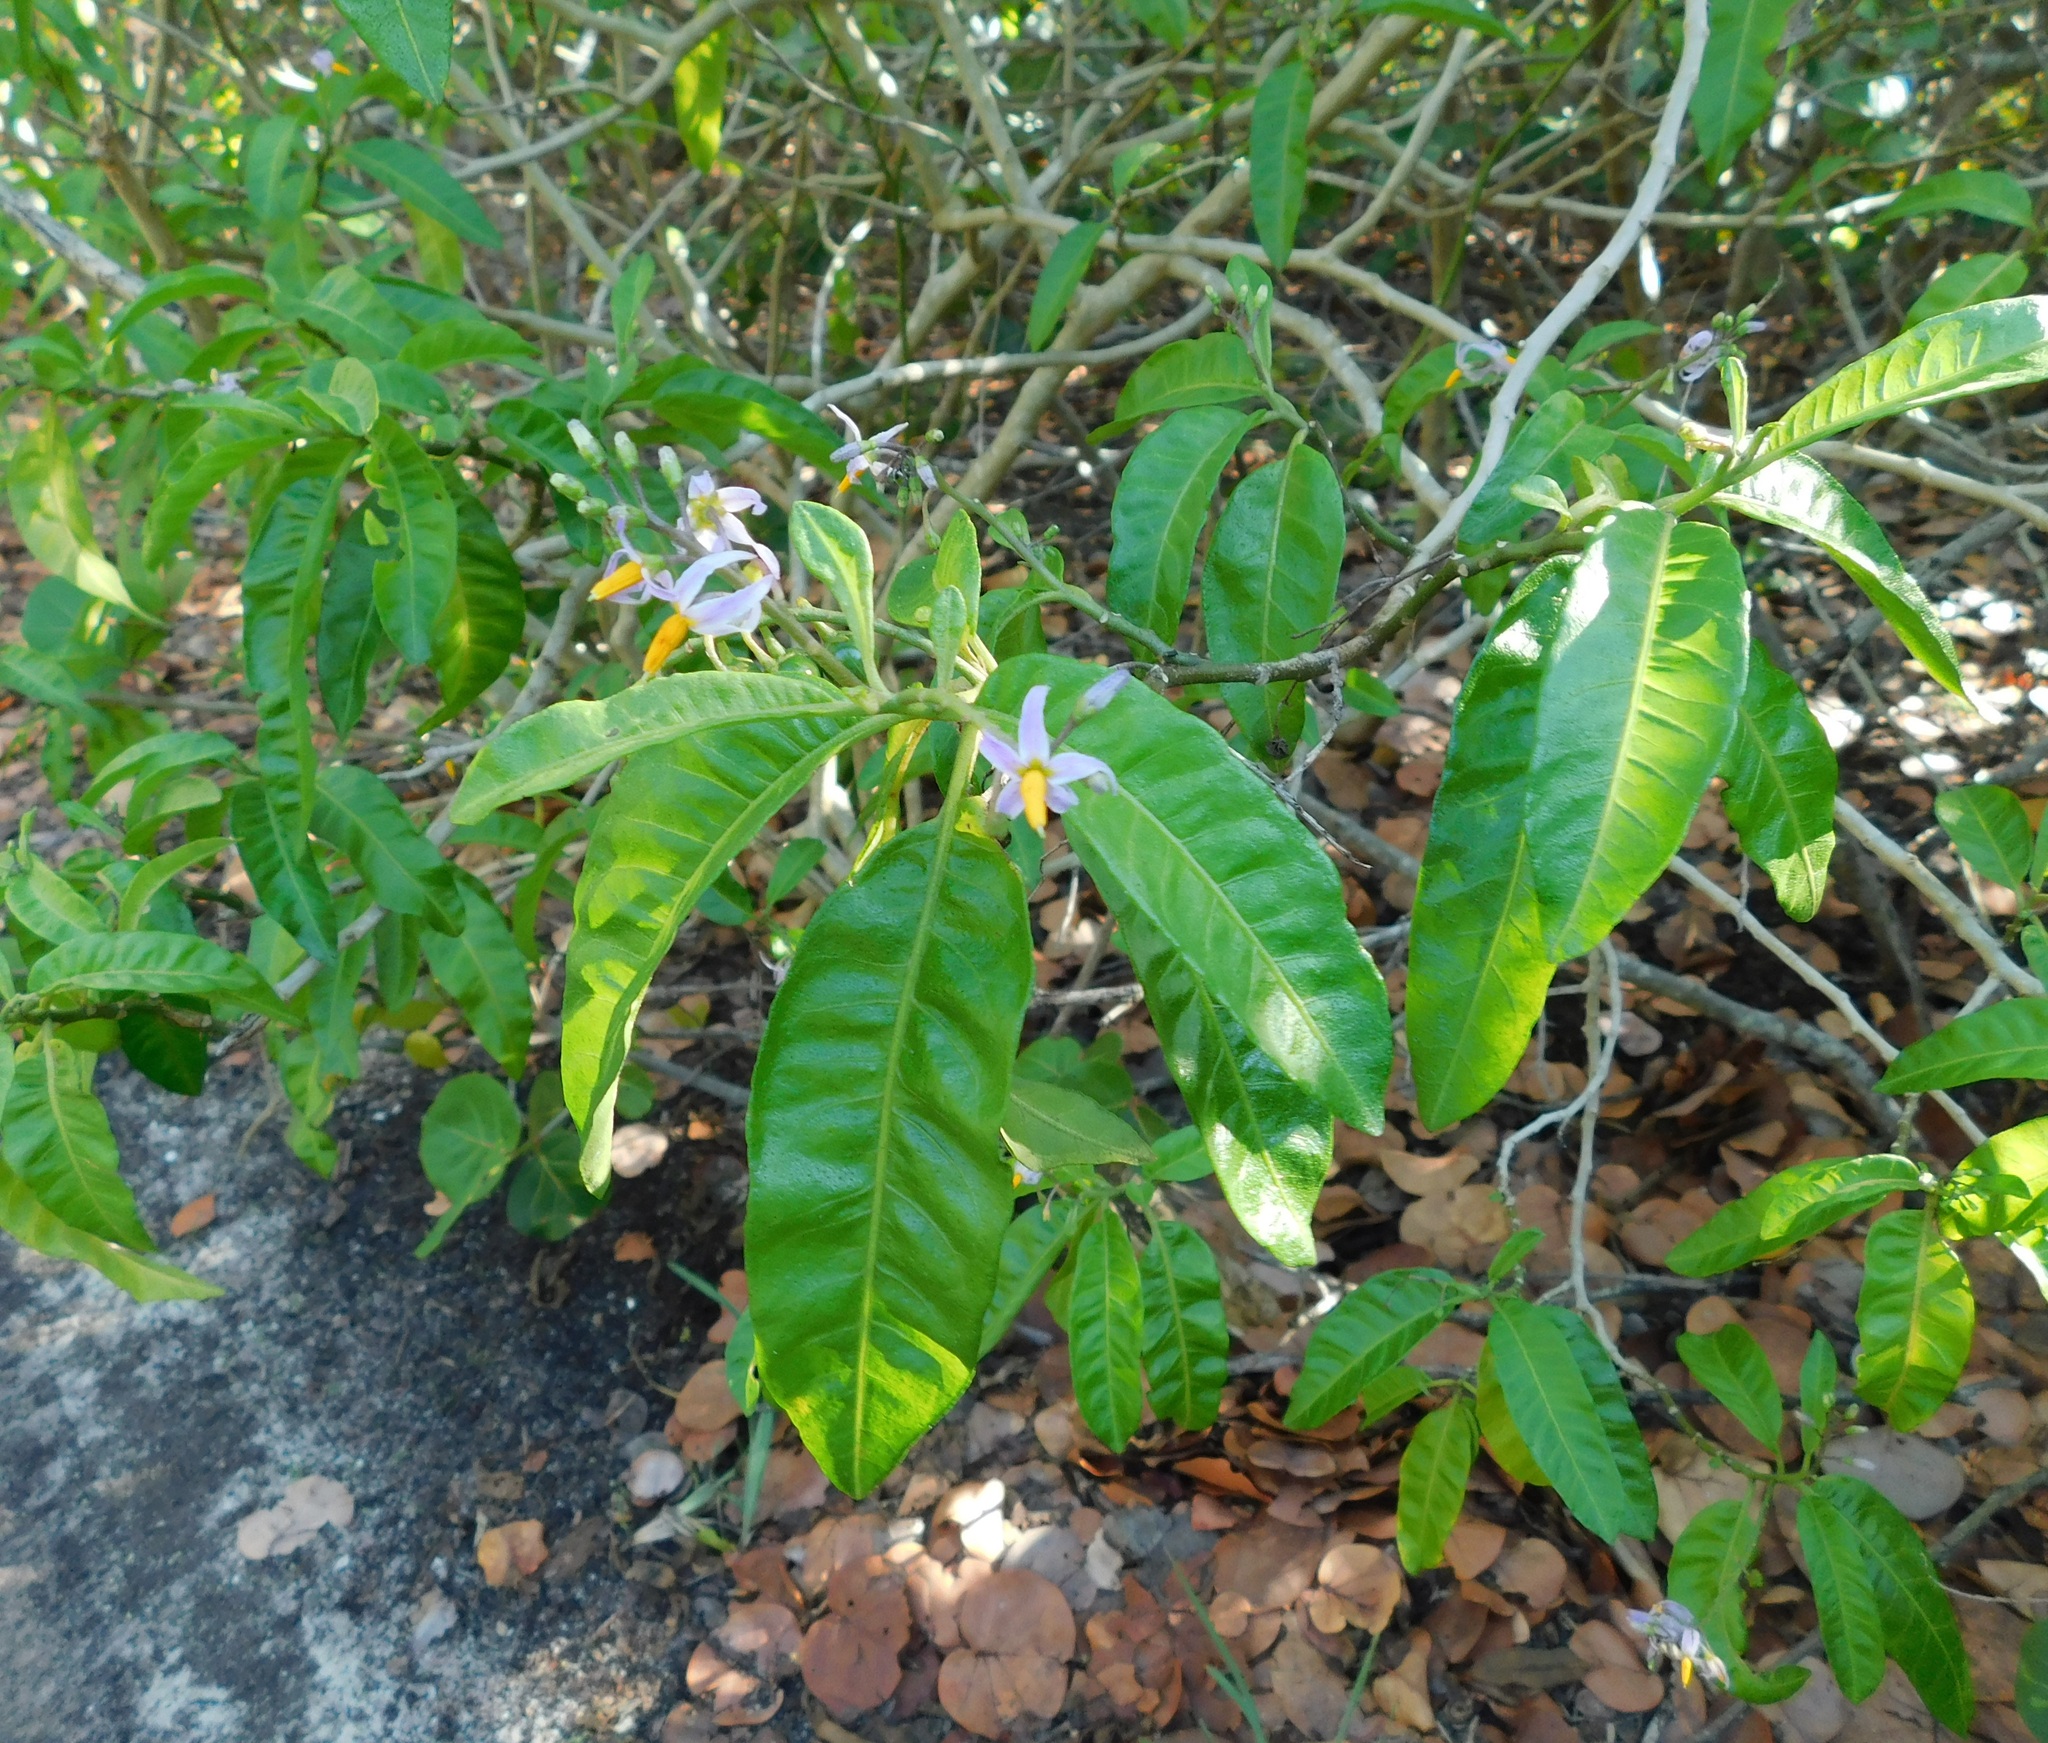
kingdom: Plantae
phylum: Tracheophyta
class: Magnoliopsida
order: Solanales
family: Solanaceae
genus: Solanum
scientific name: Solanum bahamense
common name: Canker-berry
